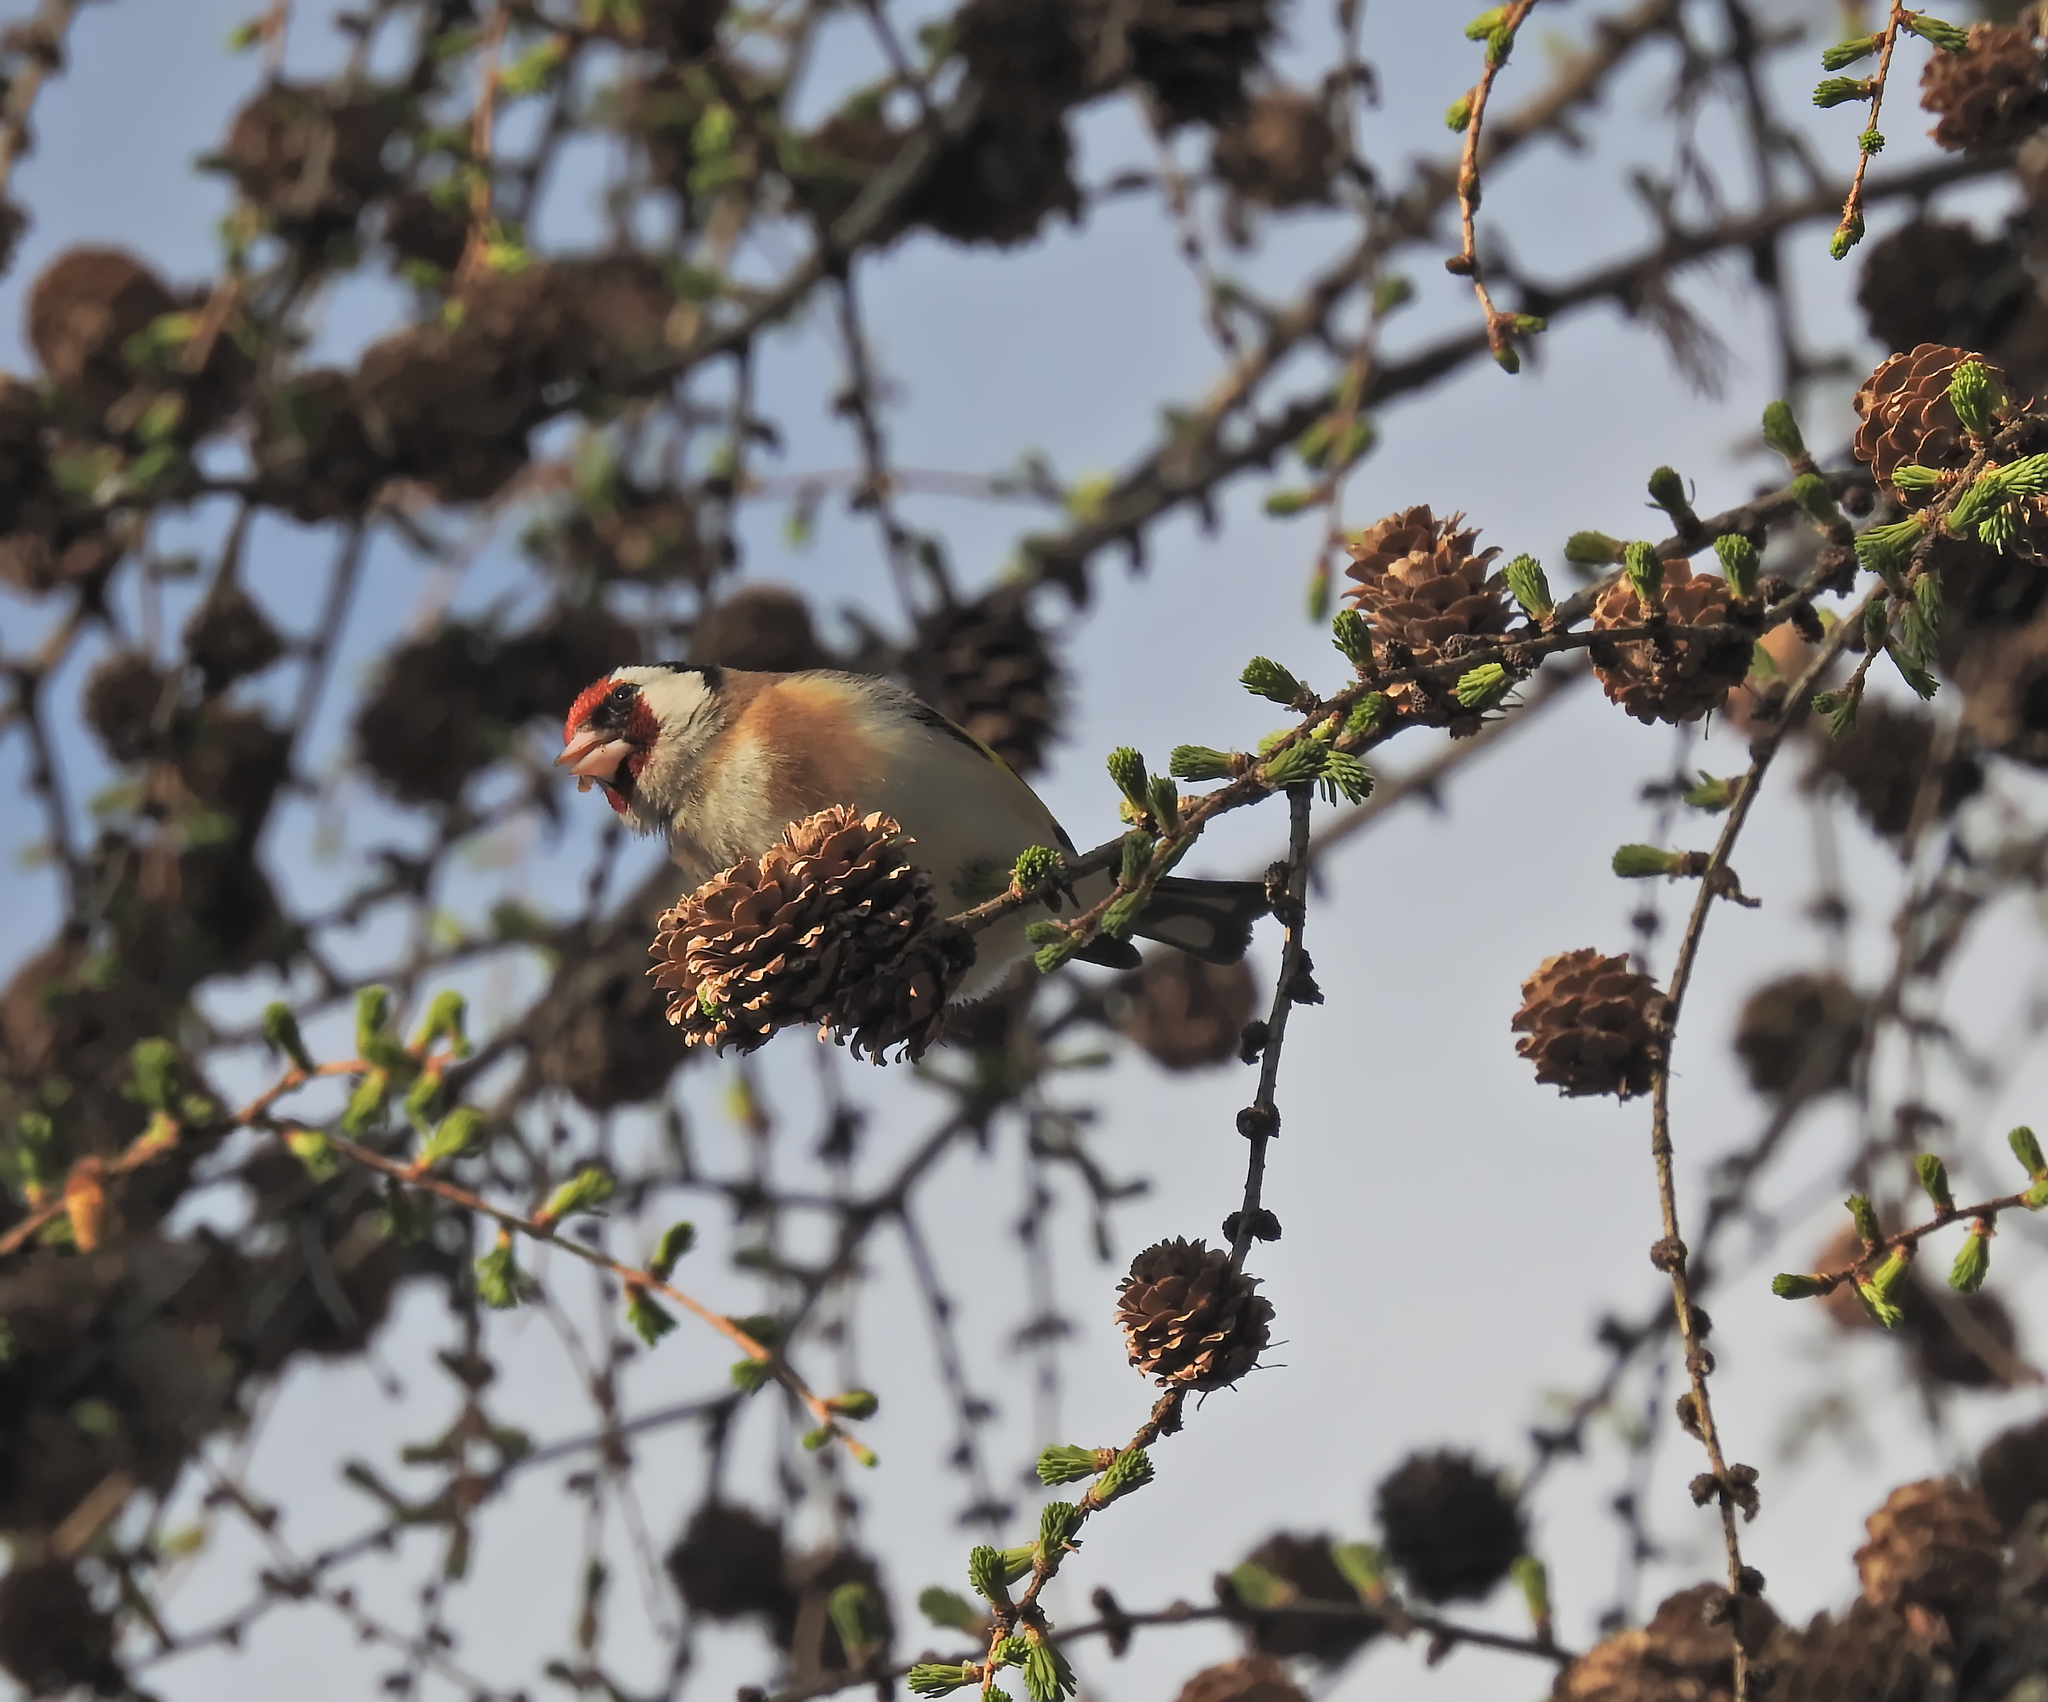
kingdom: Animalia
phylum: Chordata
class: Aves
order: Passeriformes
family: Fringillidae
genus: Carduelis
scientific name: Carduelis carduelis
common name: European goldfinch
